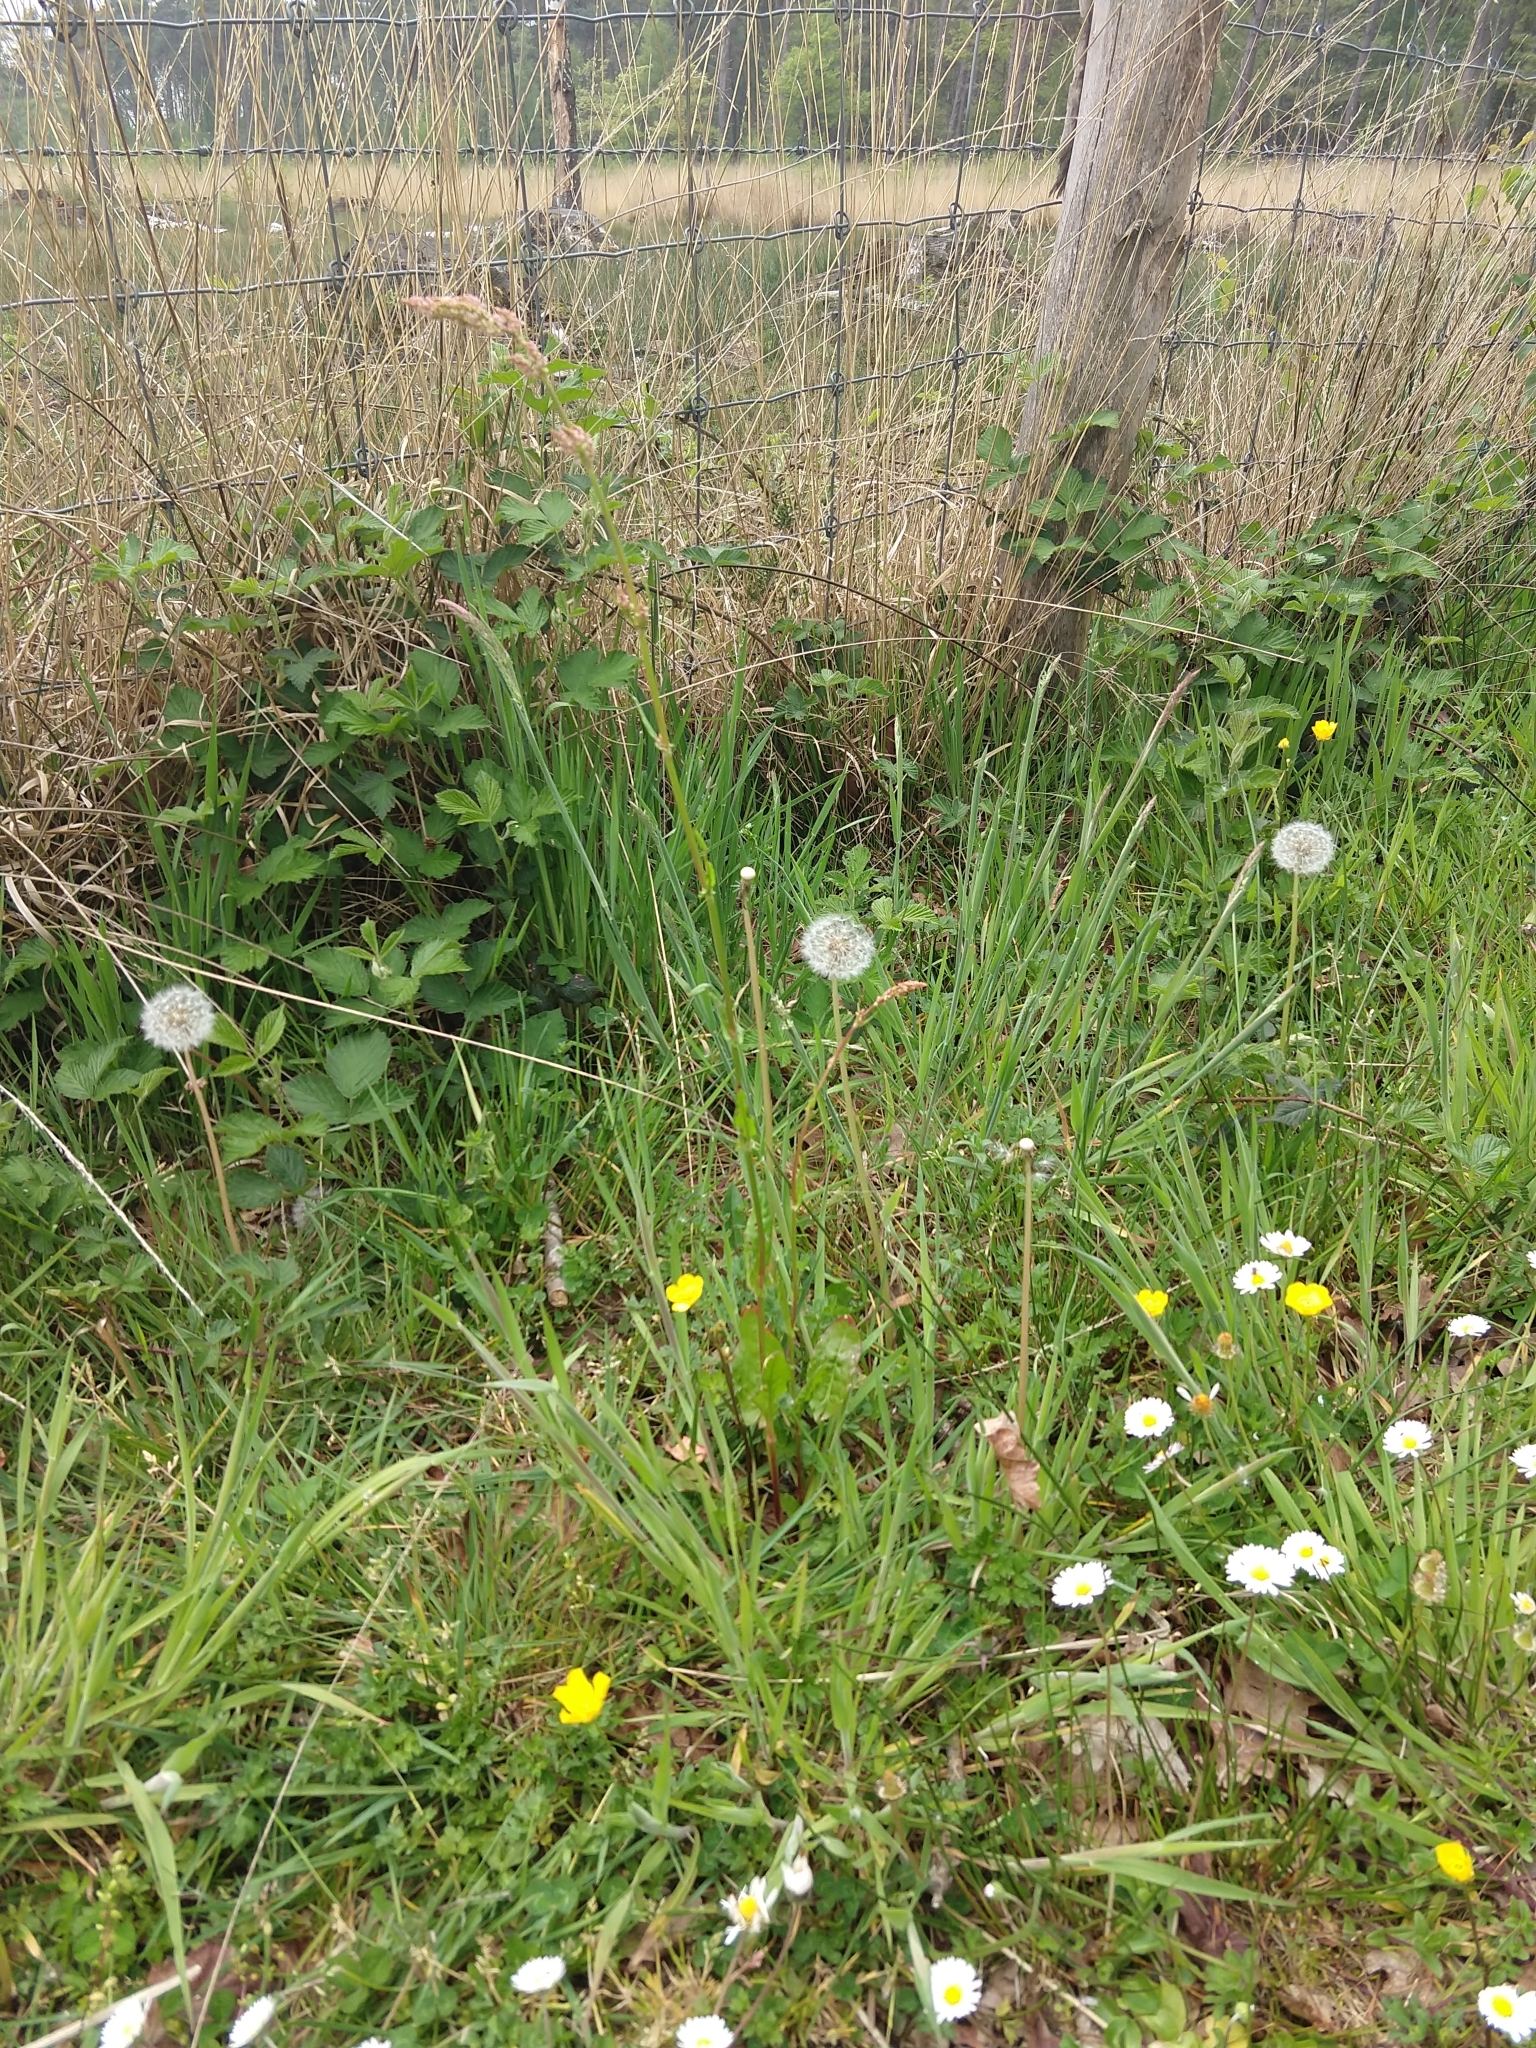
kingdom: Plantae
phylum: Tracheophyta
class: Magnoliopsida
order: Caryophyllales
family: Polygonaceae
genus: Rumex
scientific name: Rumex acetosa
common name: Garden sorrel
